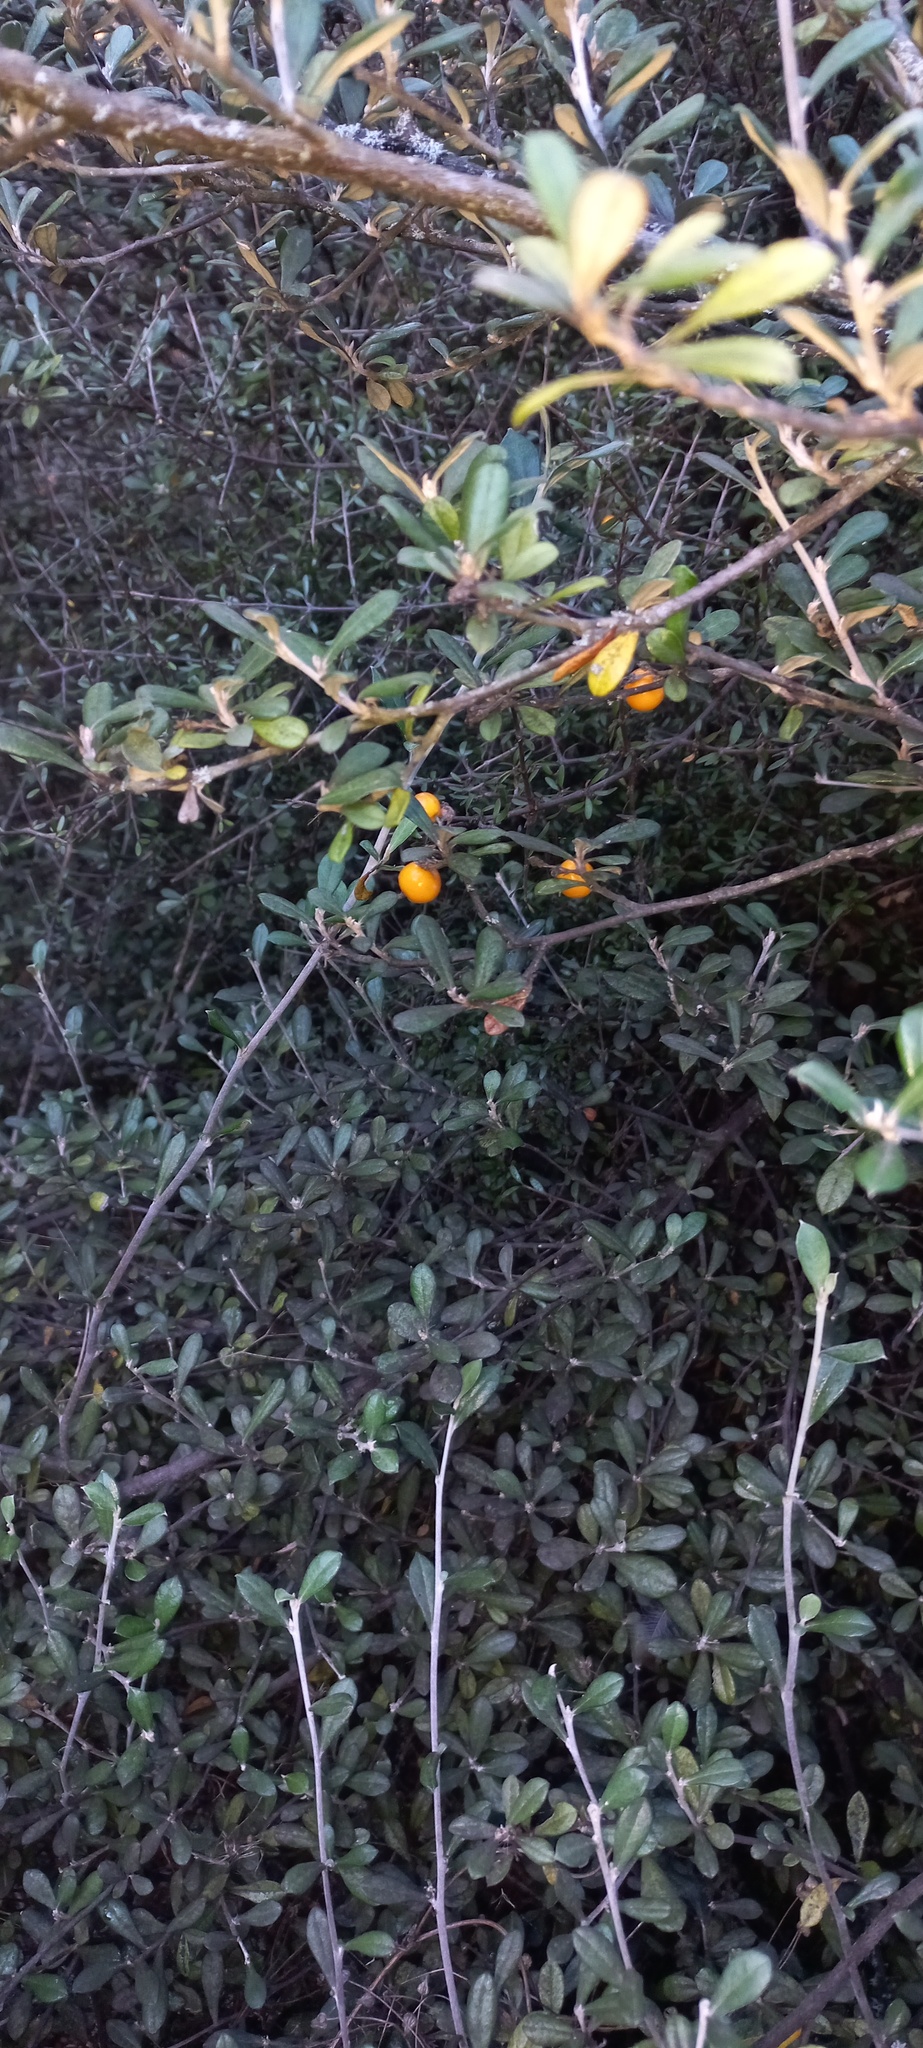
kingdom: Plantae
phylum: Tracheophyta
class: Magnoliopsida
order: Asterales
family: Argophyllaceae
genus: Corokia
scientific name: Corokia virgata
